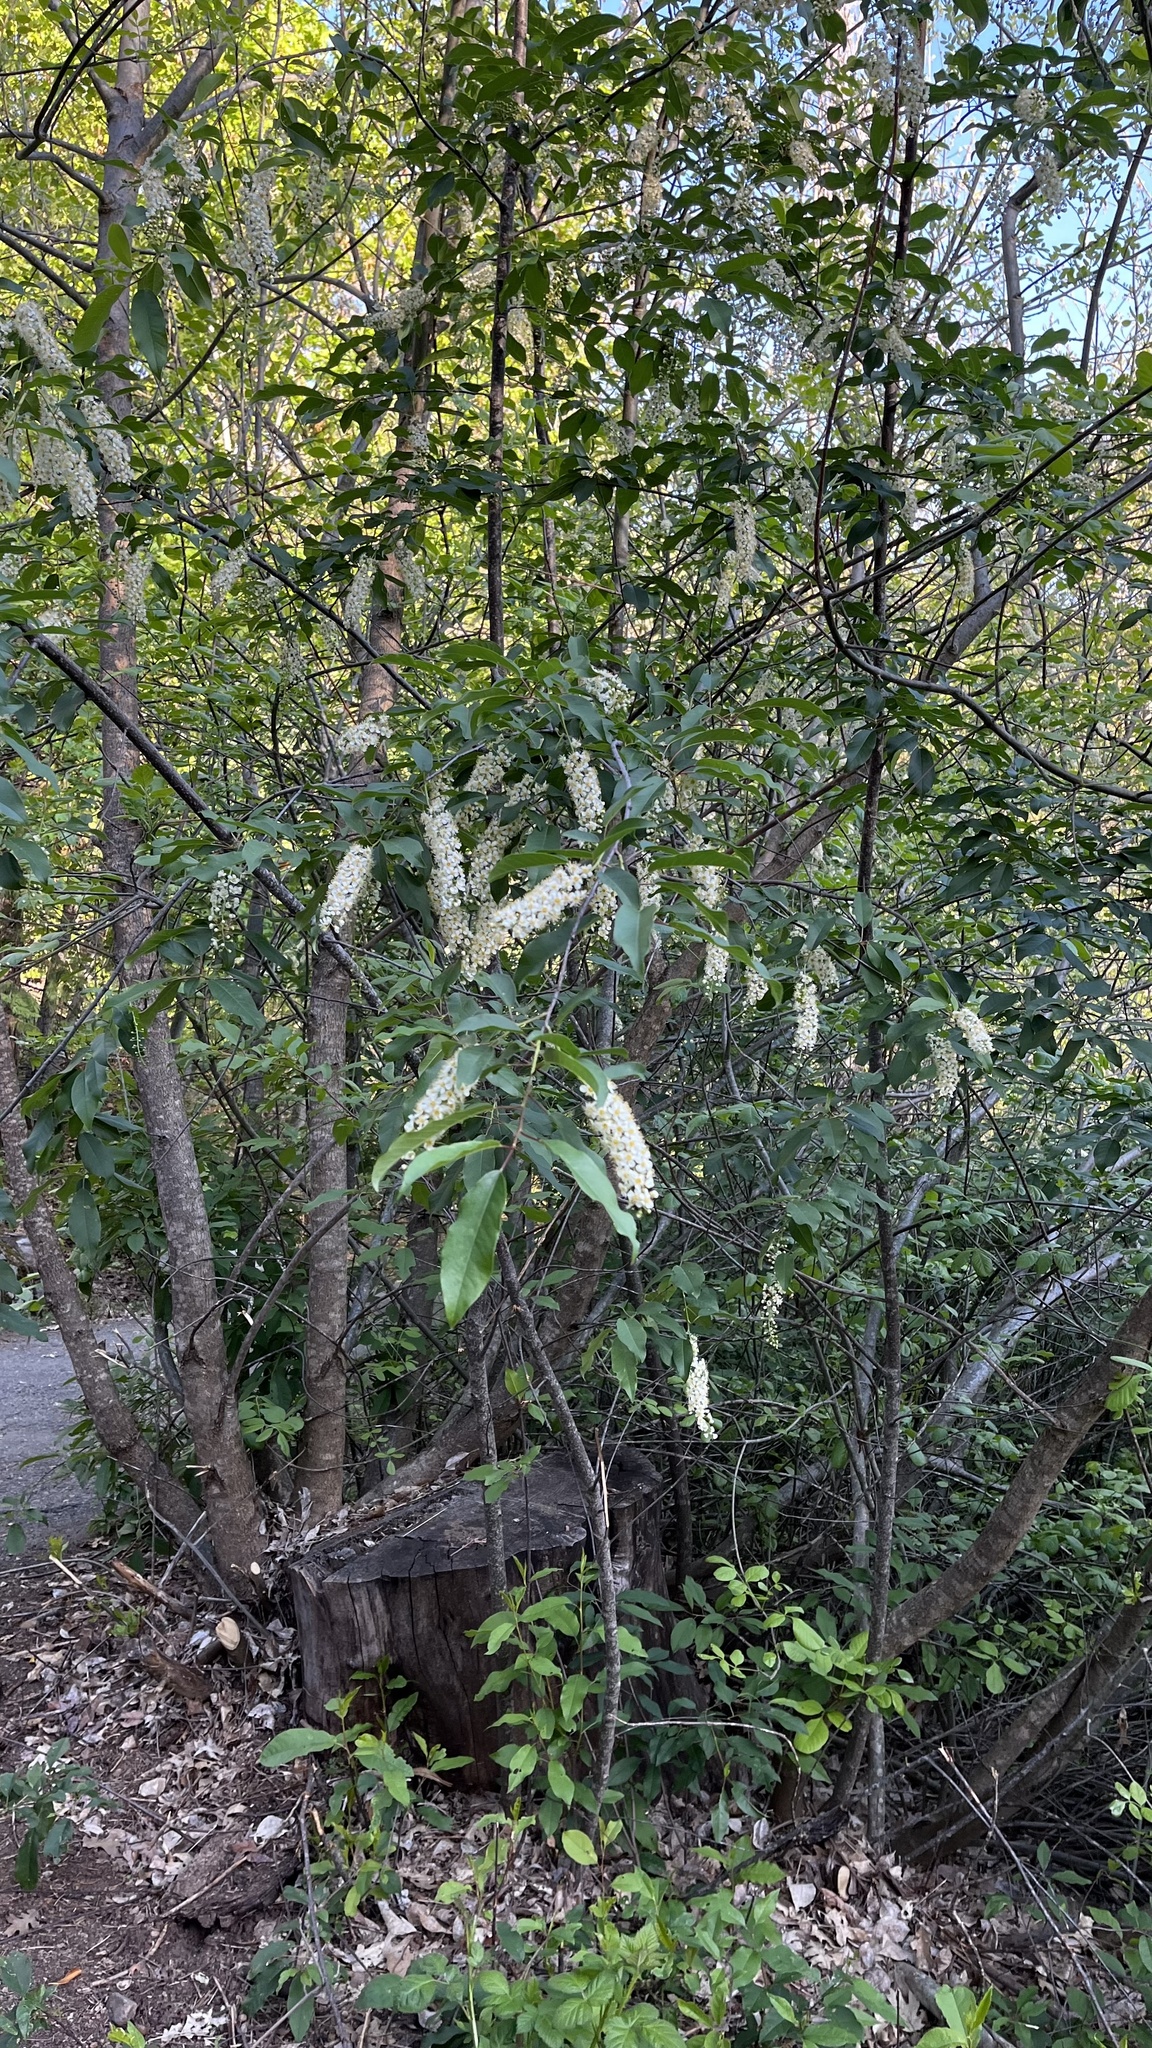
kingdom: Plantae
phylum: Tracheophyta
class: Magnoliopsida
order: Rosales
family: Rosaceae
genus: Prunus
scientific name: Prunus virginiana
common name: Chokecherry
